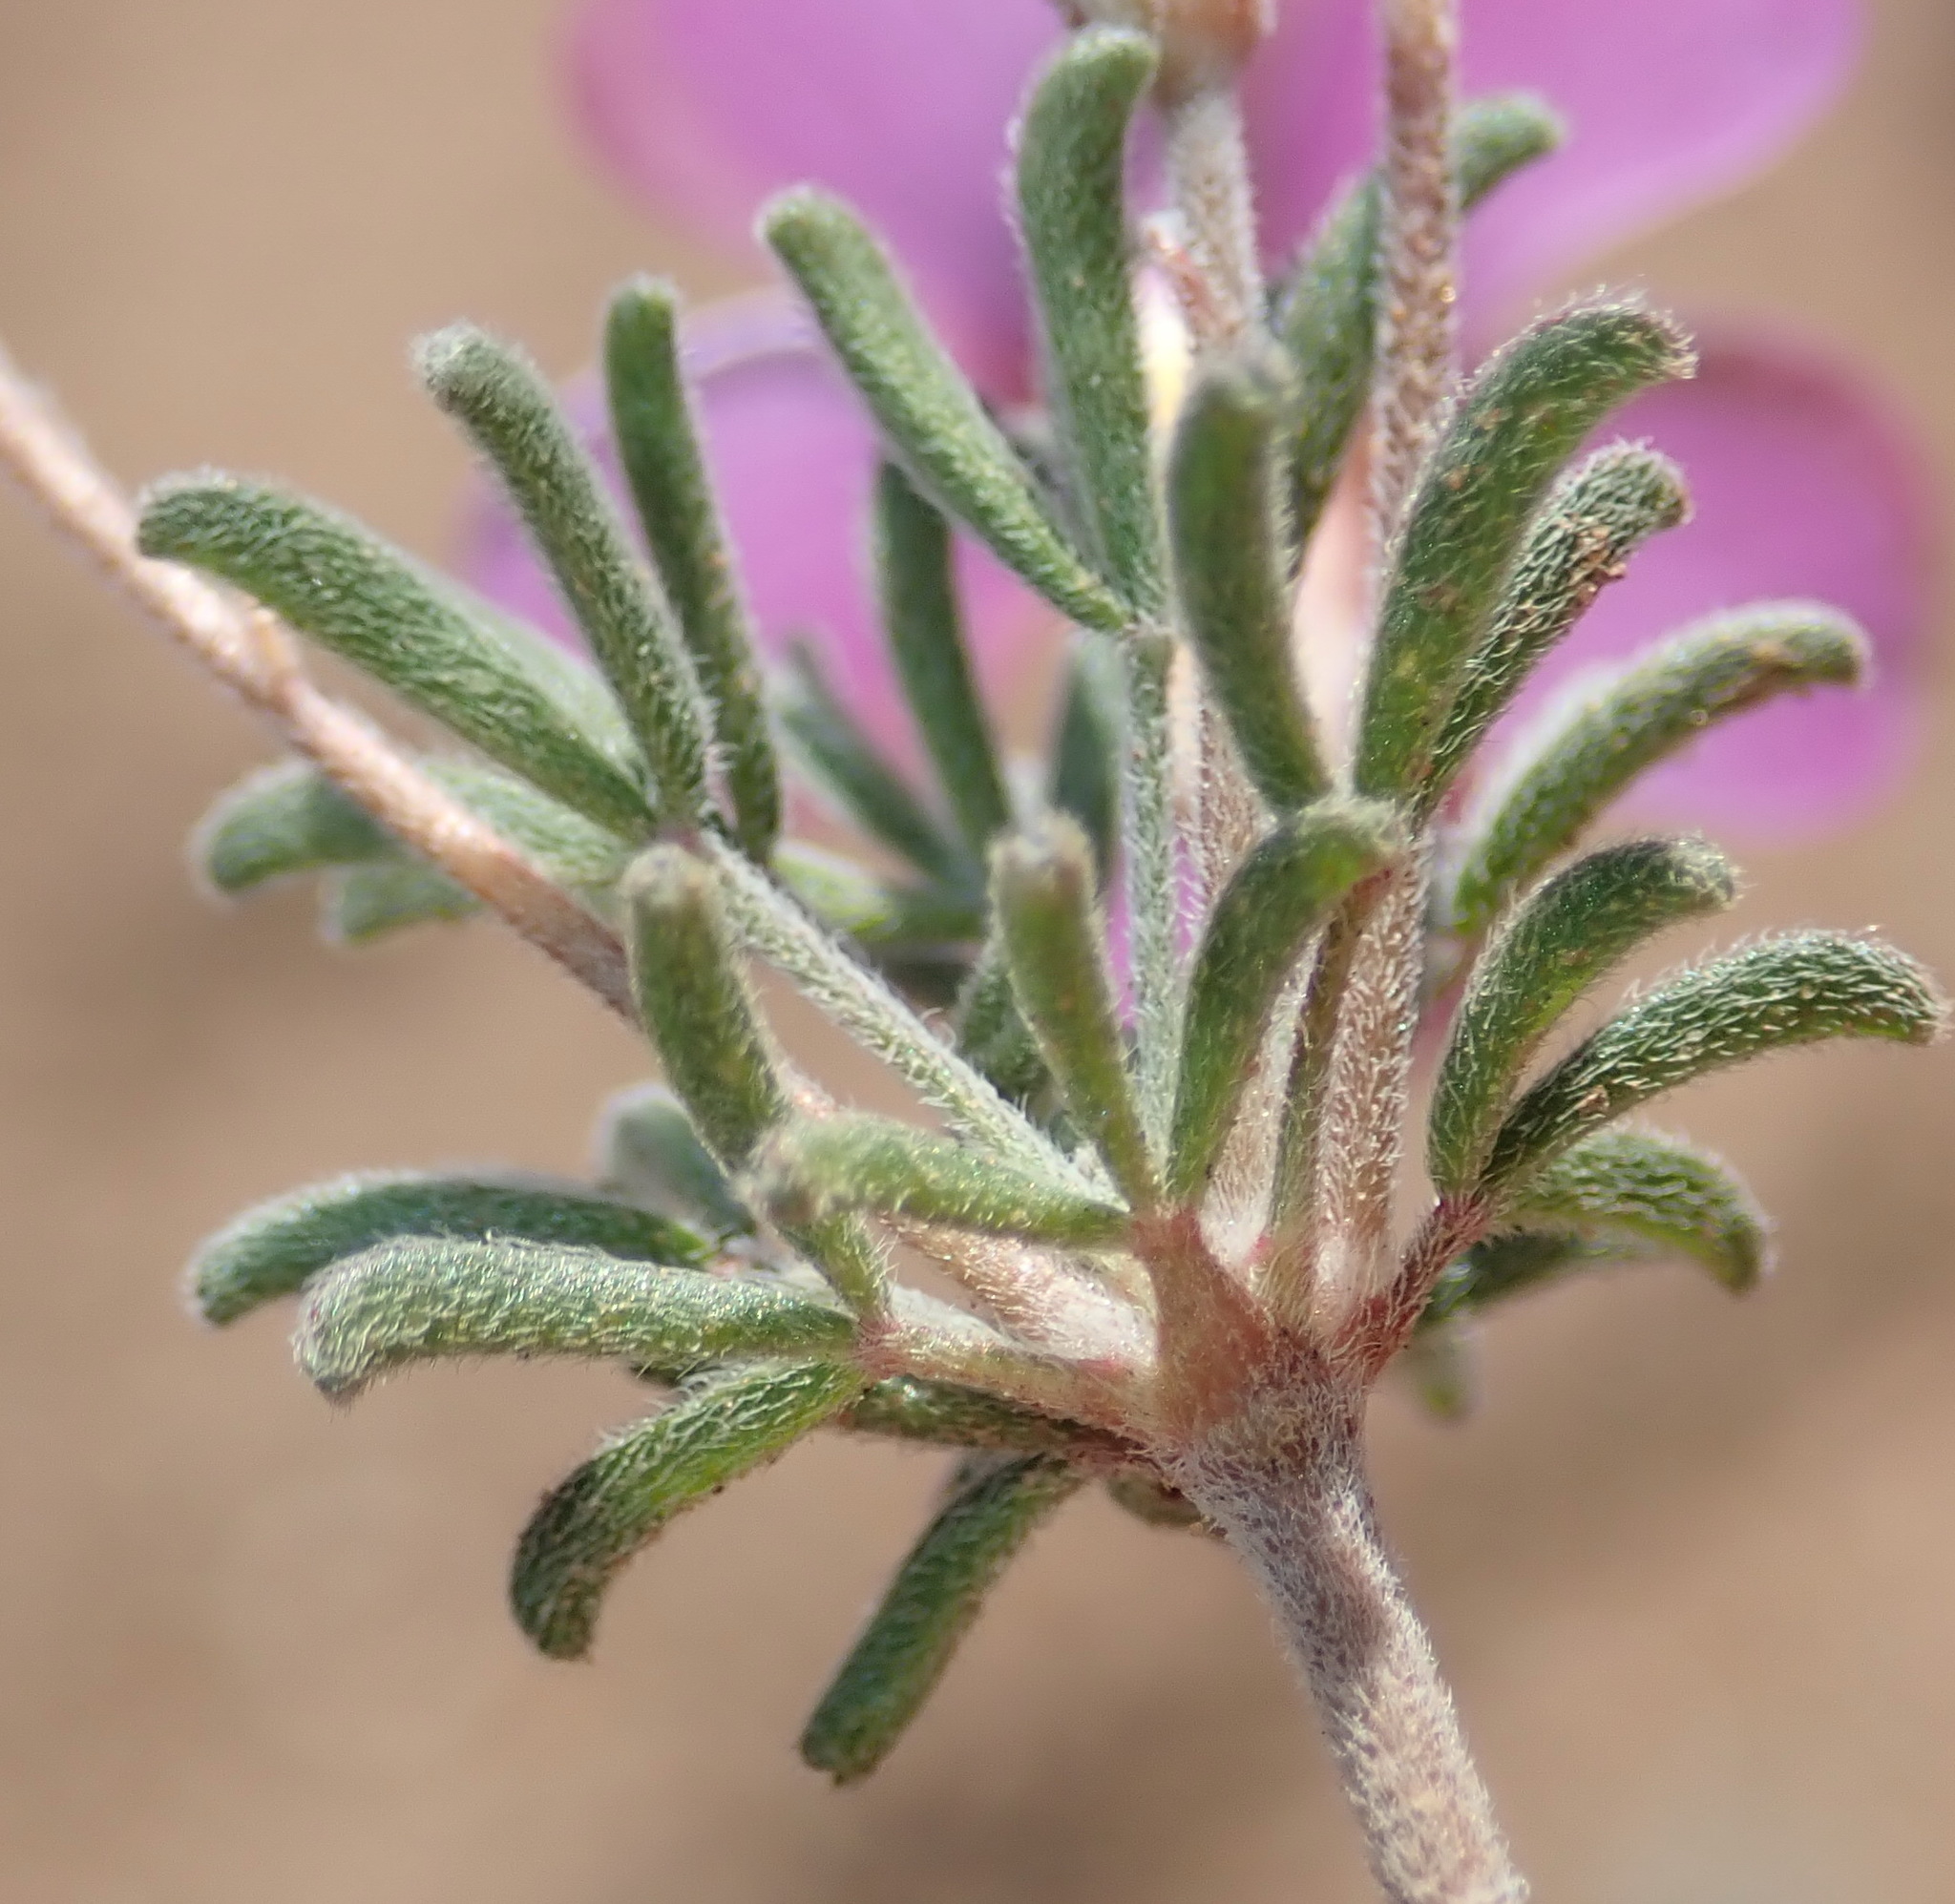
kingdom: Plantae
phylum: Tracheophyta
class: Magnoliopsida
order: Oxalidales
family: Oxalidaceae
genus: Oxalis
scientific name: Oxalis ciliaris
